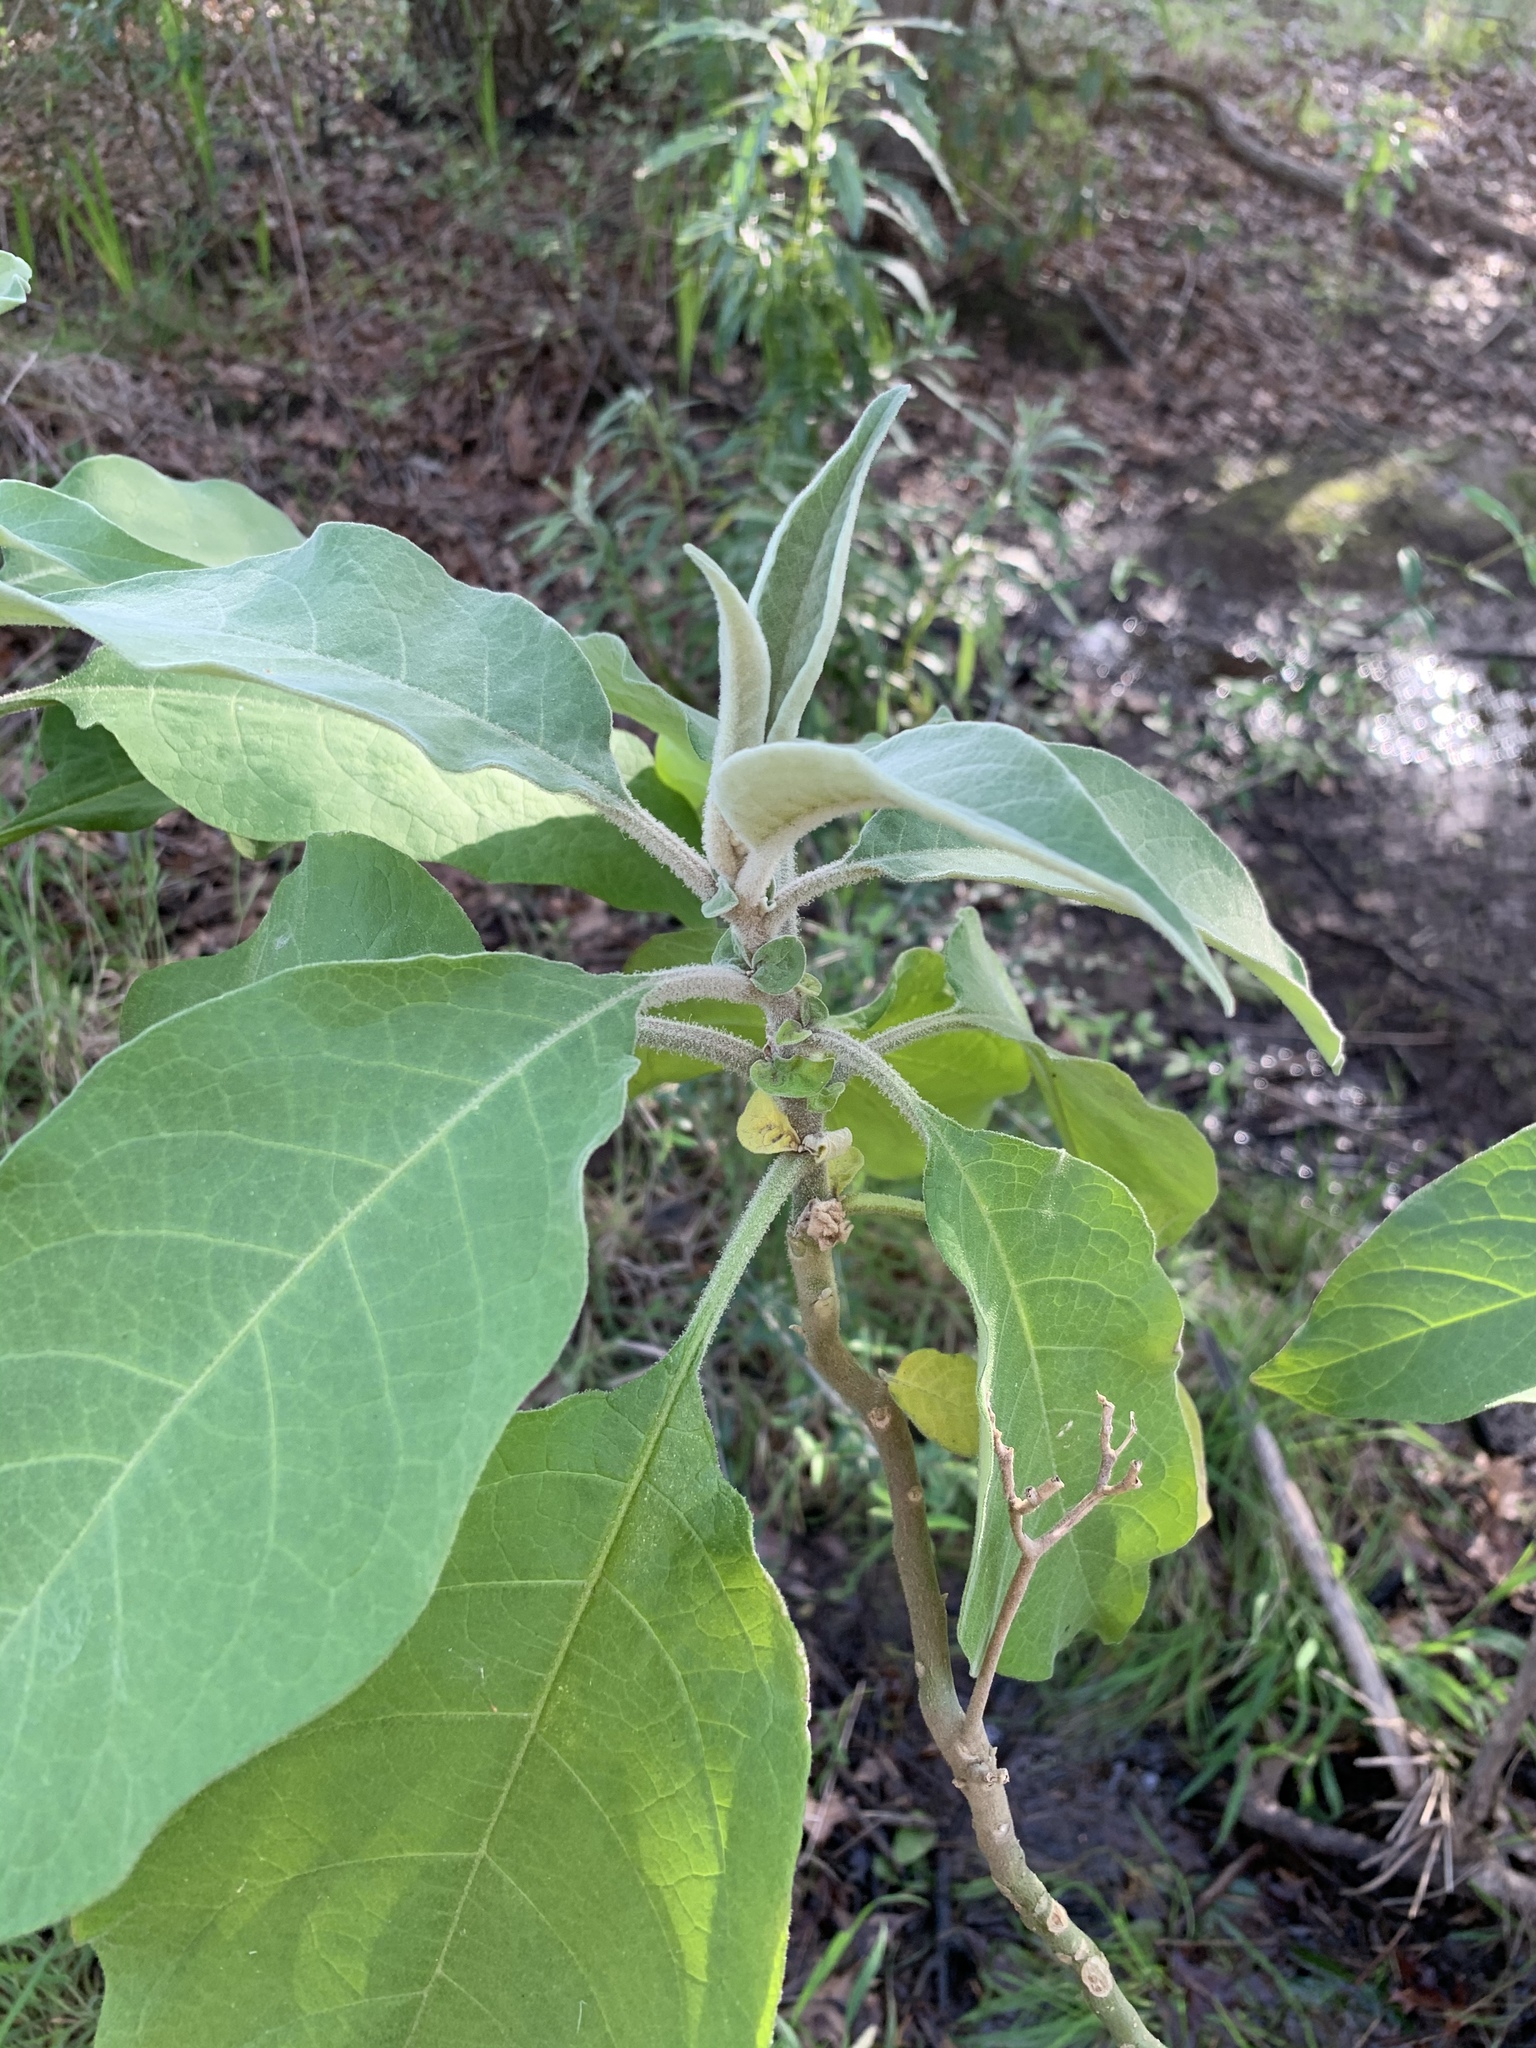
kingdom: Plantae
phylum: Tracheophyta
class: Magnoliopsida
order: Solanales
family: Solanaceae
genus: Solanum
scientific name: Solanum mauritianum
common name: Earleaf nightshade
